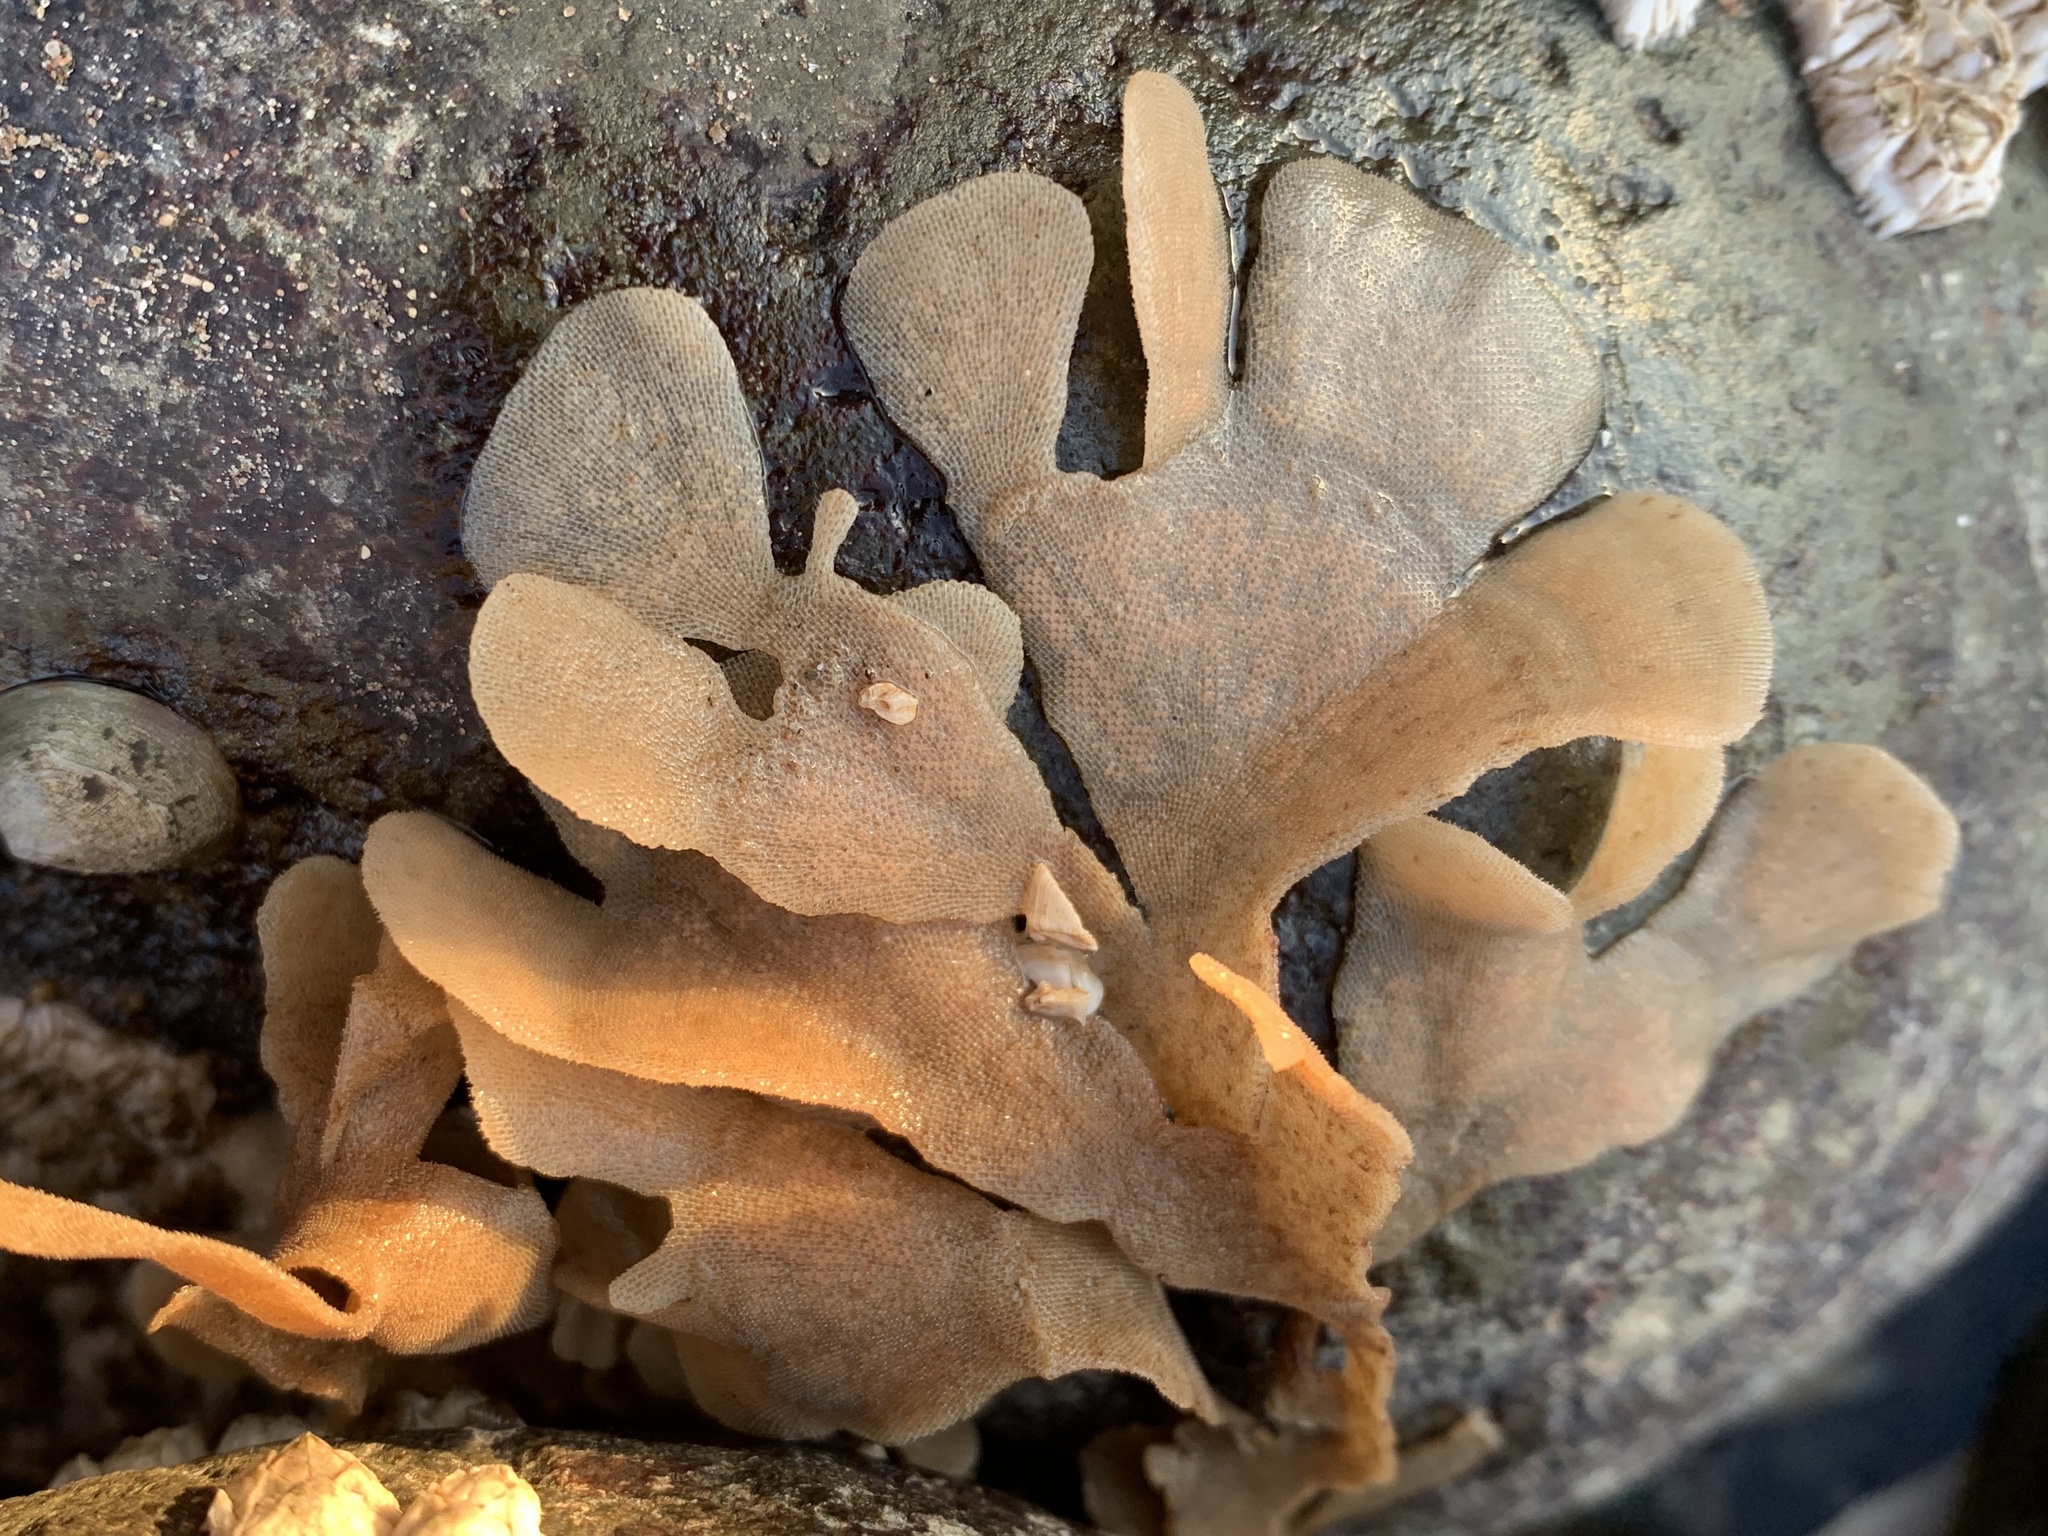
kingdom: Animalia
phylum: Bryozoa
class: Gymnolaemata
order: Cheilostomatida
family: Flustridae
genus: Flustra
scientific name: Flustra foliacea
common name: Hornwrack
